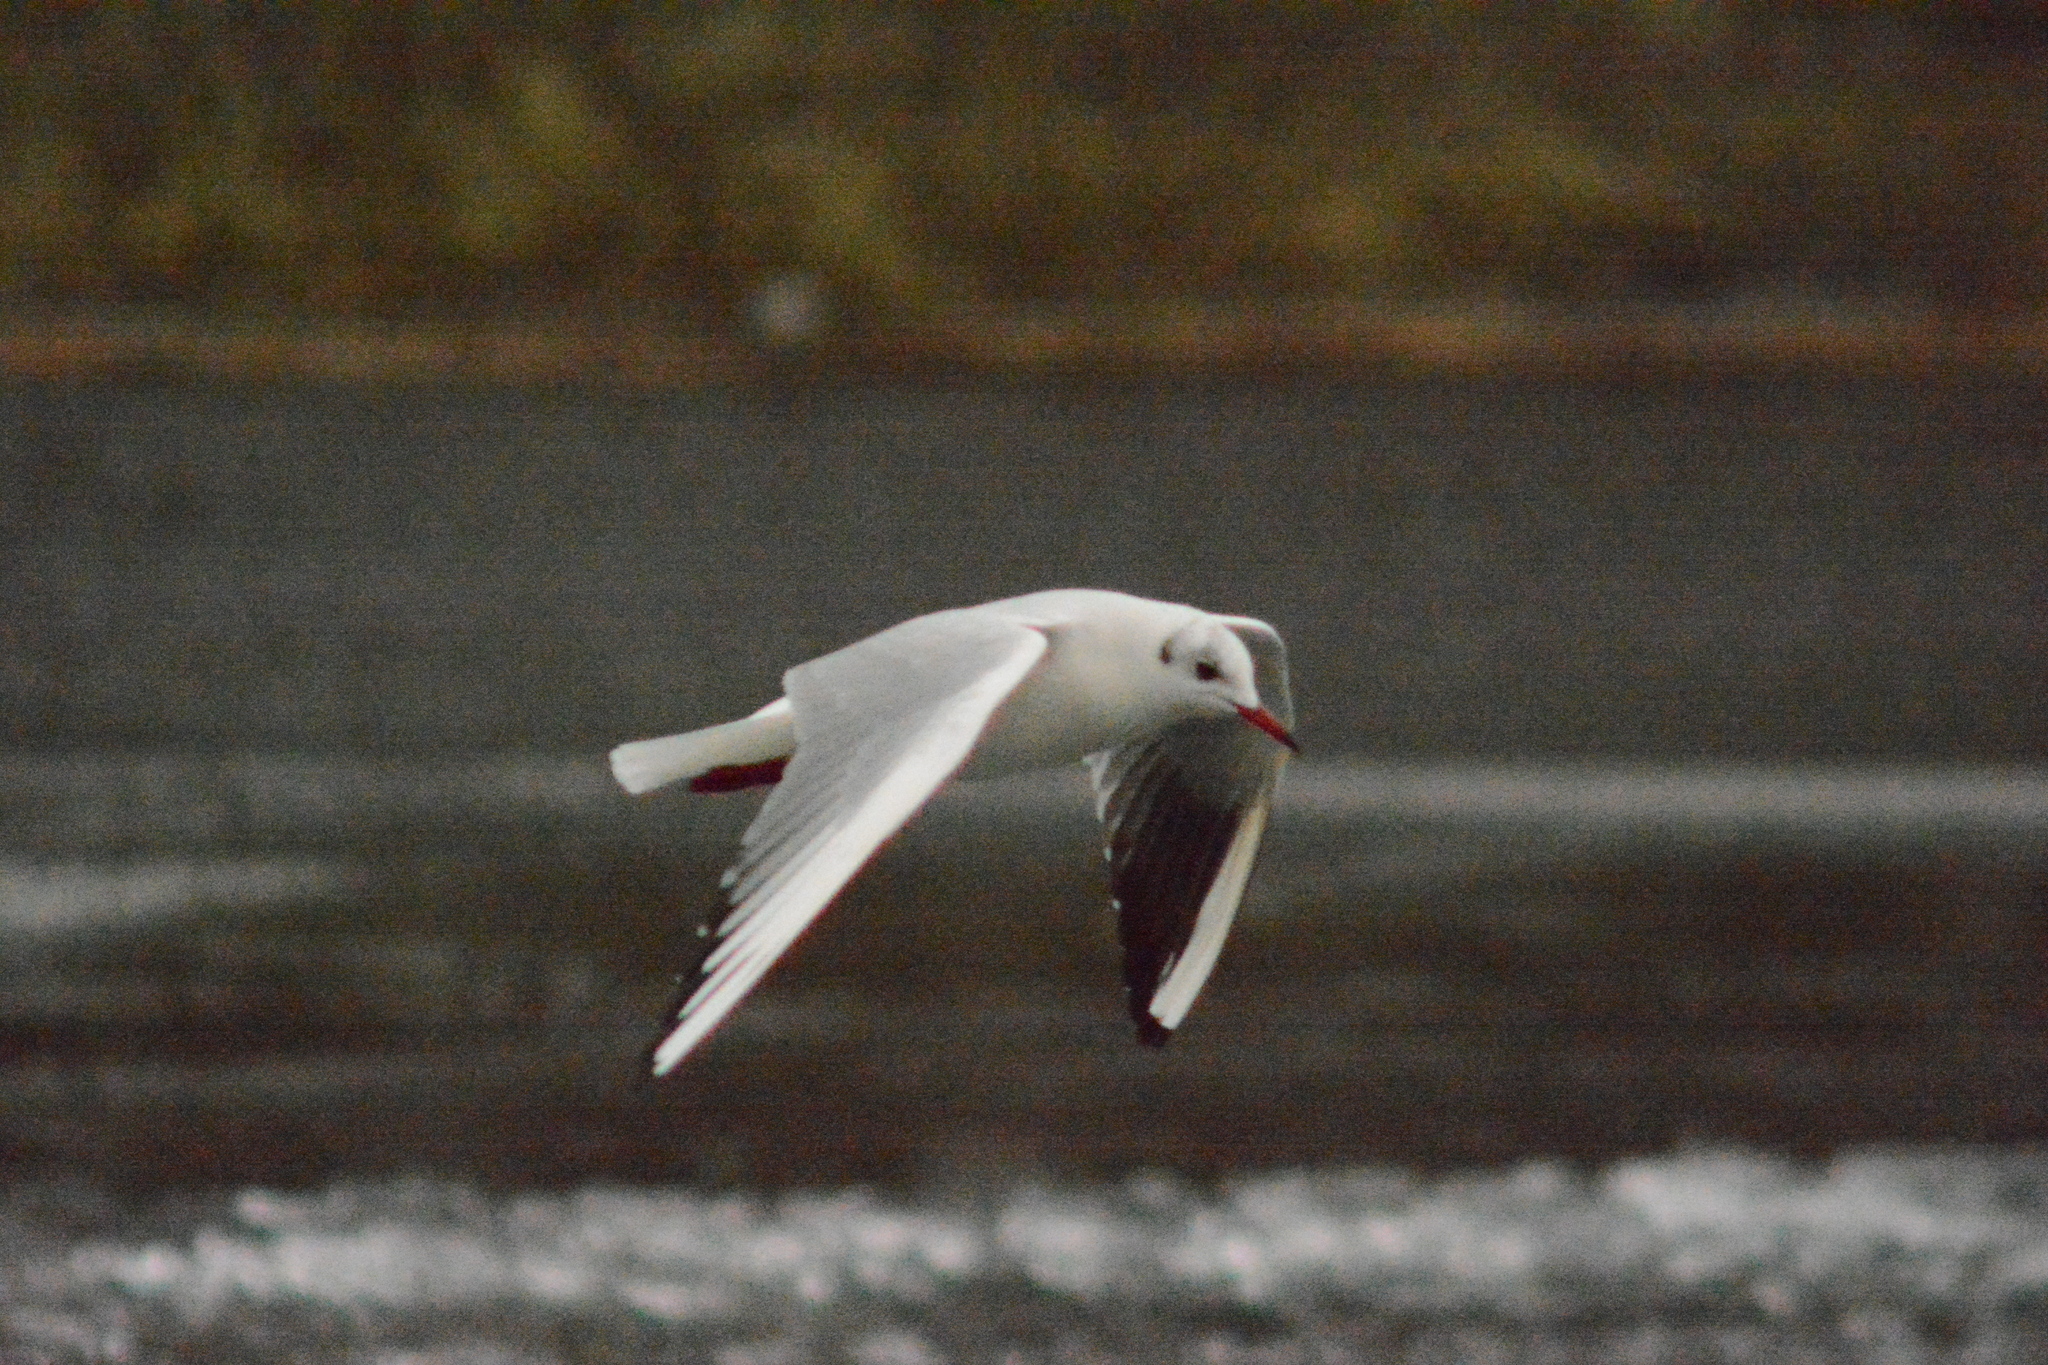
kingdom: Animalia
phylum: Chordata
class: Aves
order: Charadriiformes
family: Laridae
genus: Chroicocephalus
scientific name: Chroicocephalus ridibundus
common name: Black-headed gull
